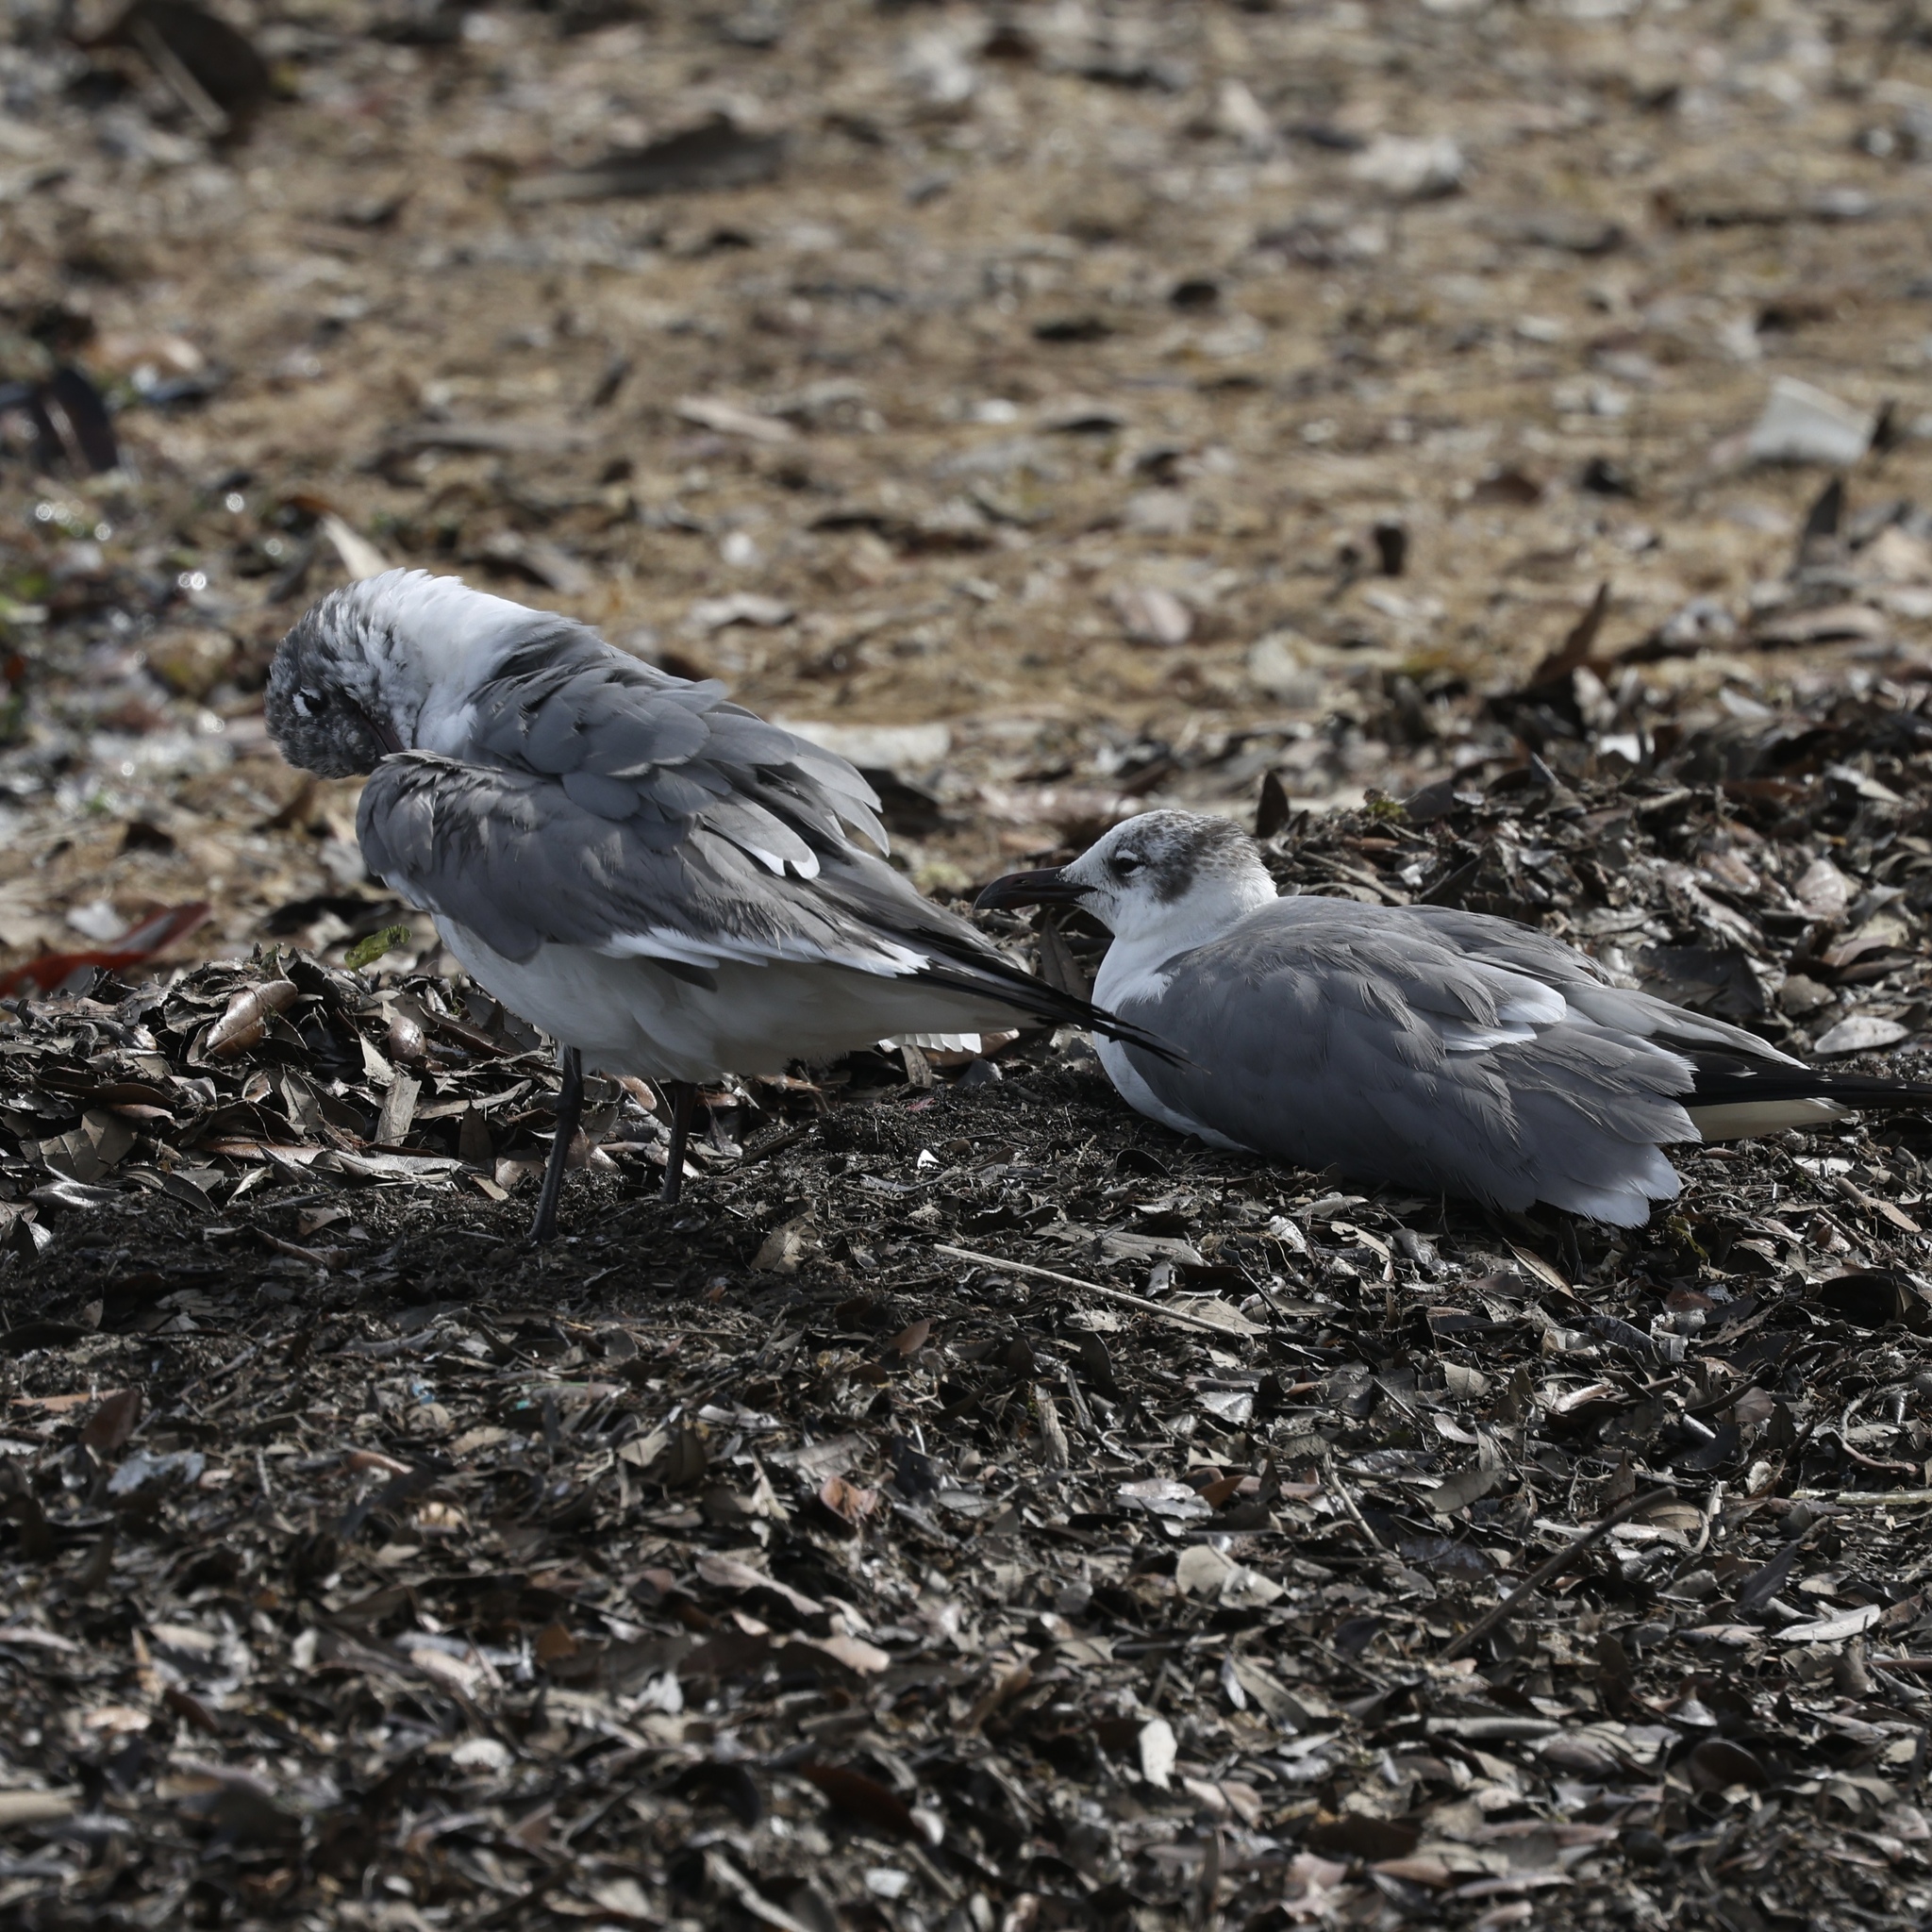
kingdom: Animalia
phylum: Chordata
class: Aves
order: Charadriiformes
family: Laridae
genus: Leucophaeus
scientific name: Leucophaeus atricilla
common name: Laughing gull
